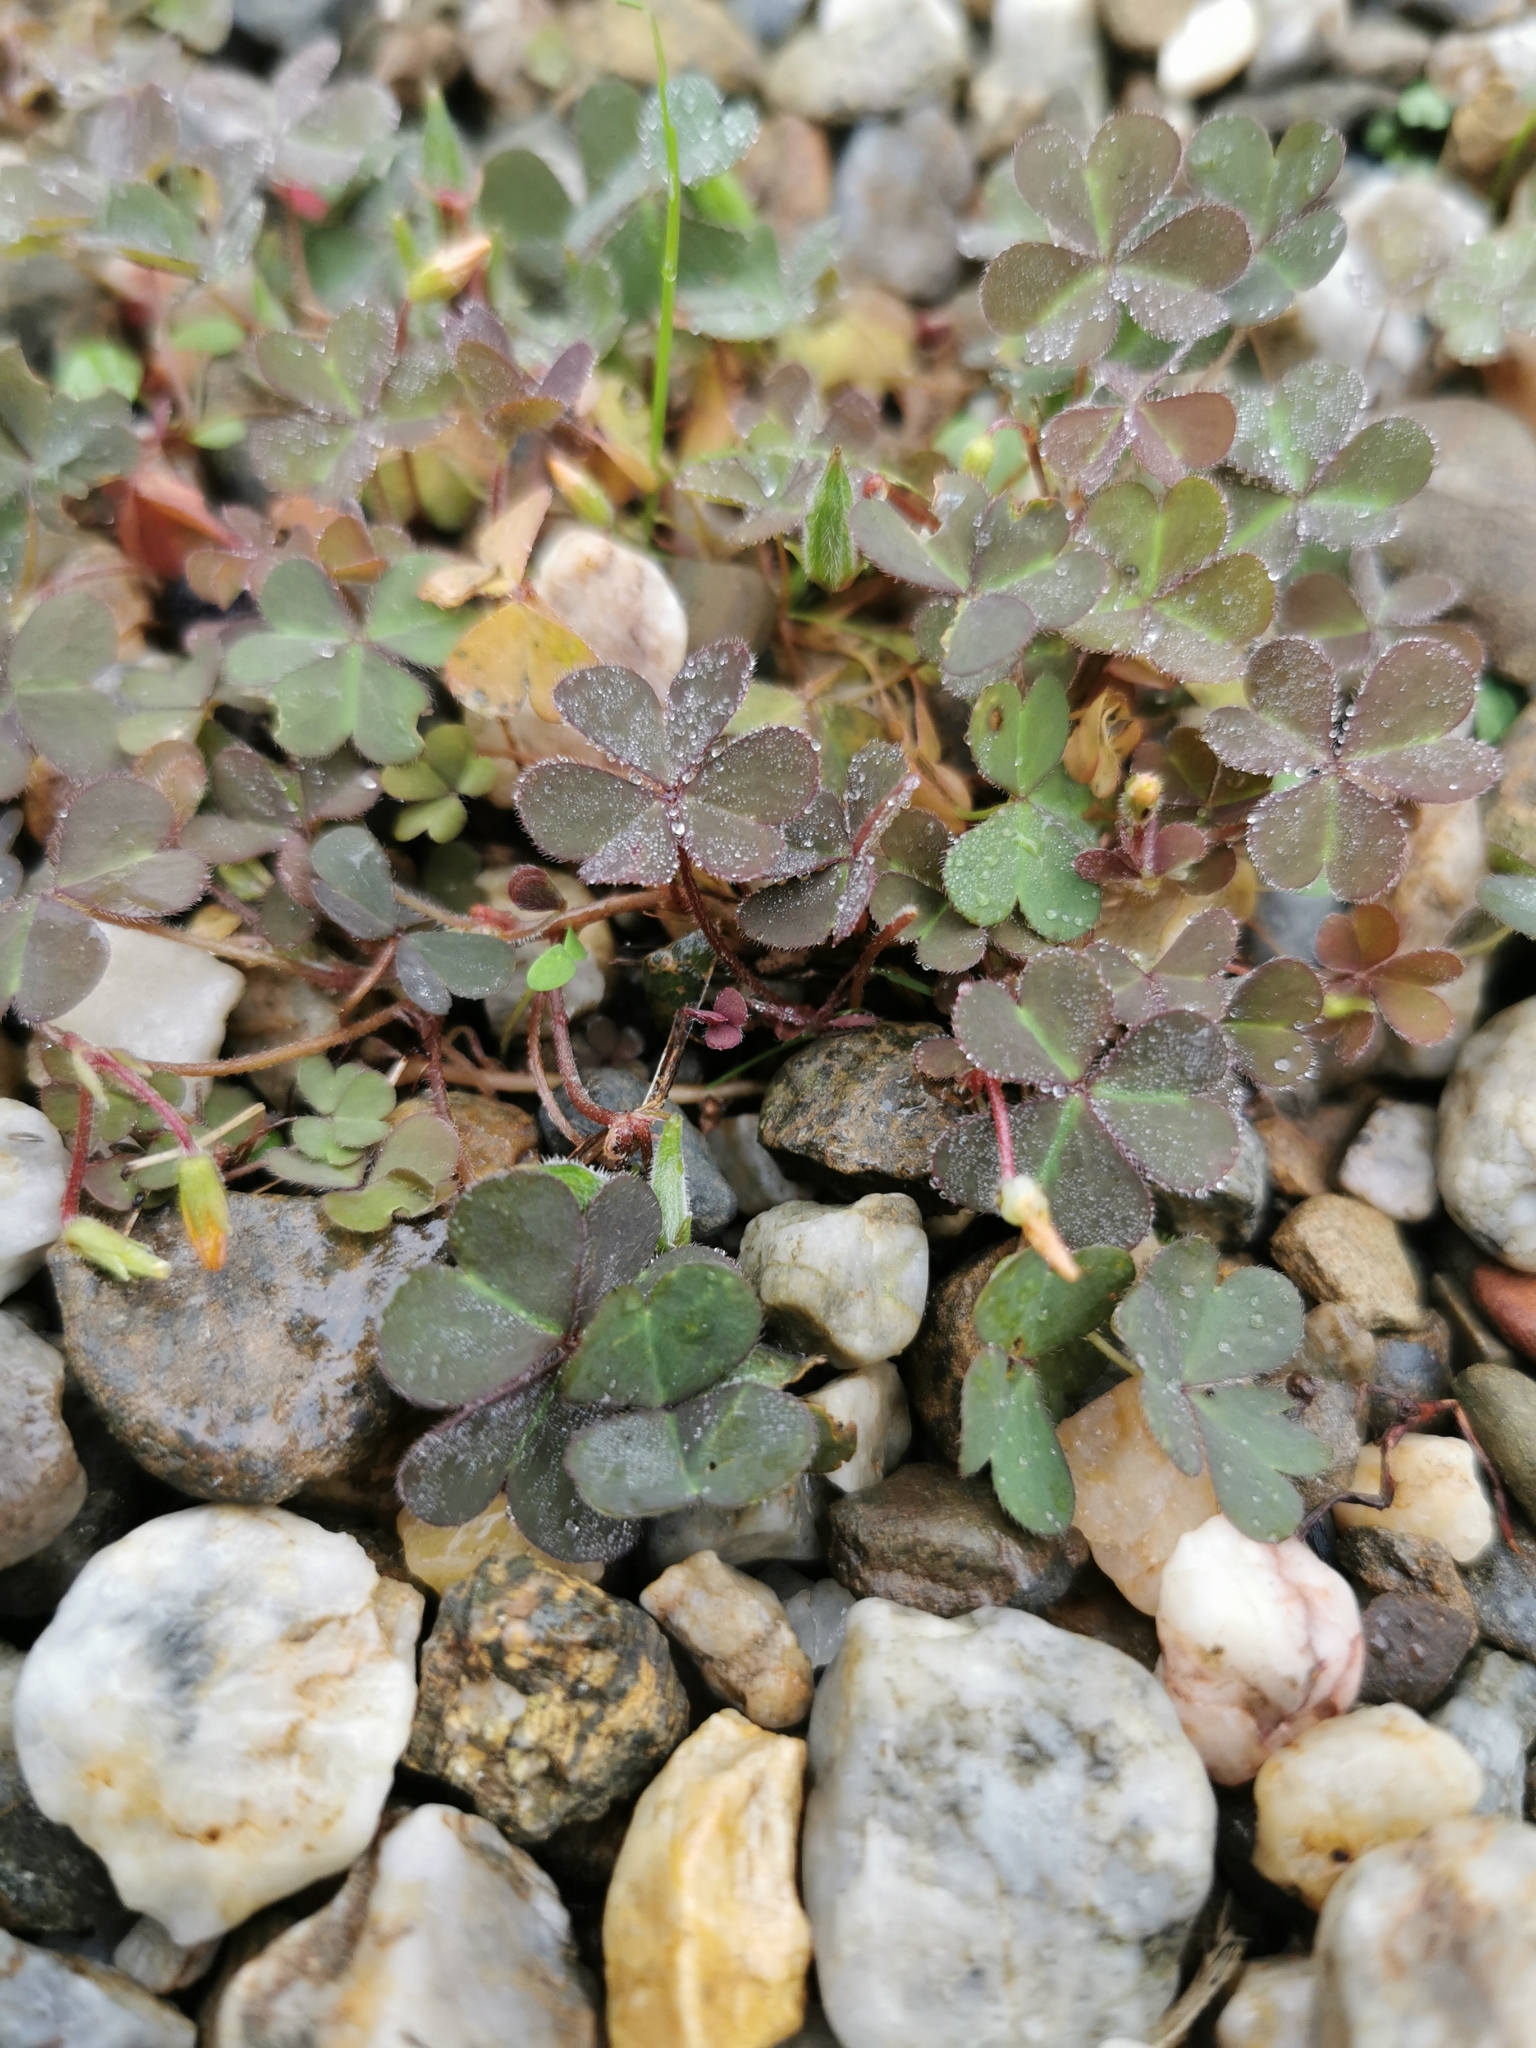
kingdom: Plantae
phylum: Tracheophyta
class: Magnoliopsida
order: Oxalidales
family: Oxalidaceae
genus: Oxalis
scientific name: Oxalis corniculata
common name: Procumbent yellow-sorrel
